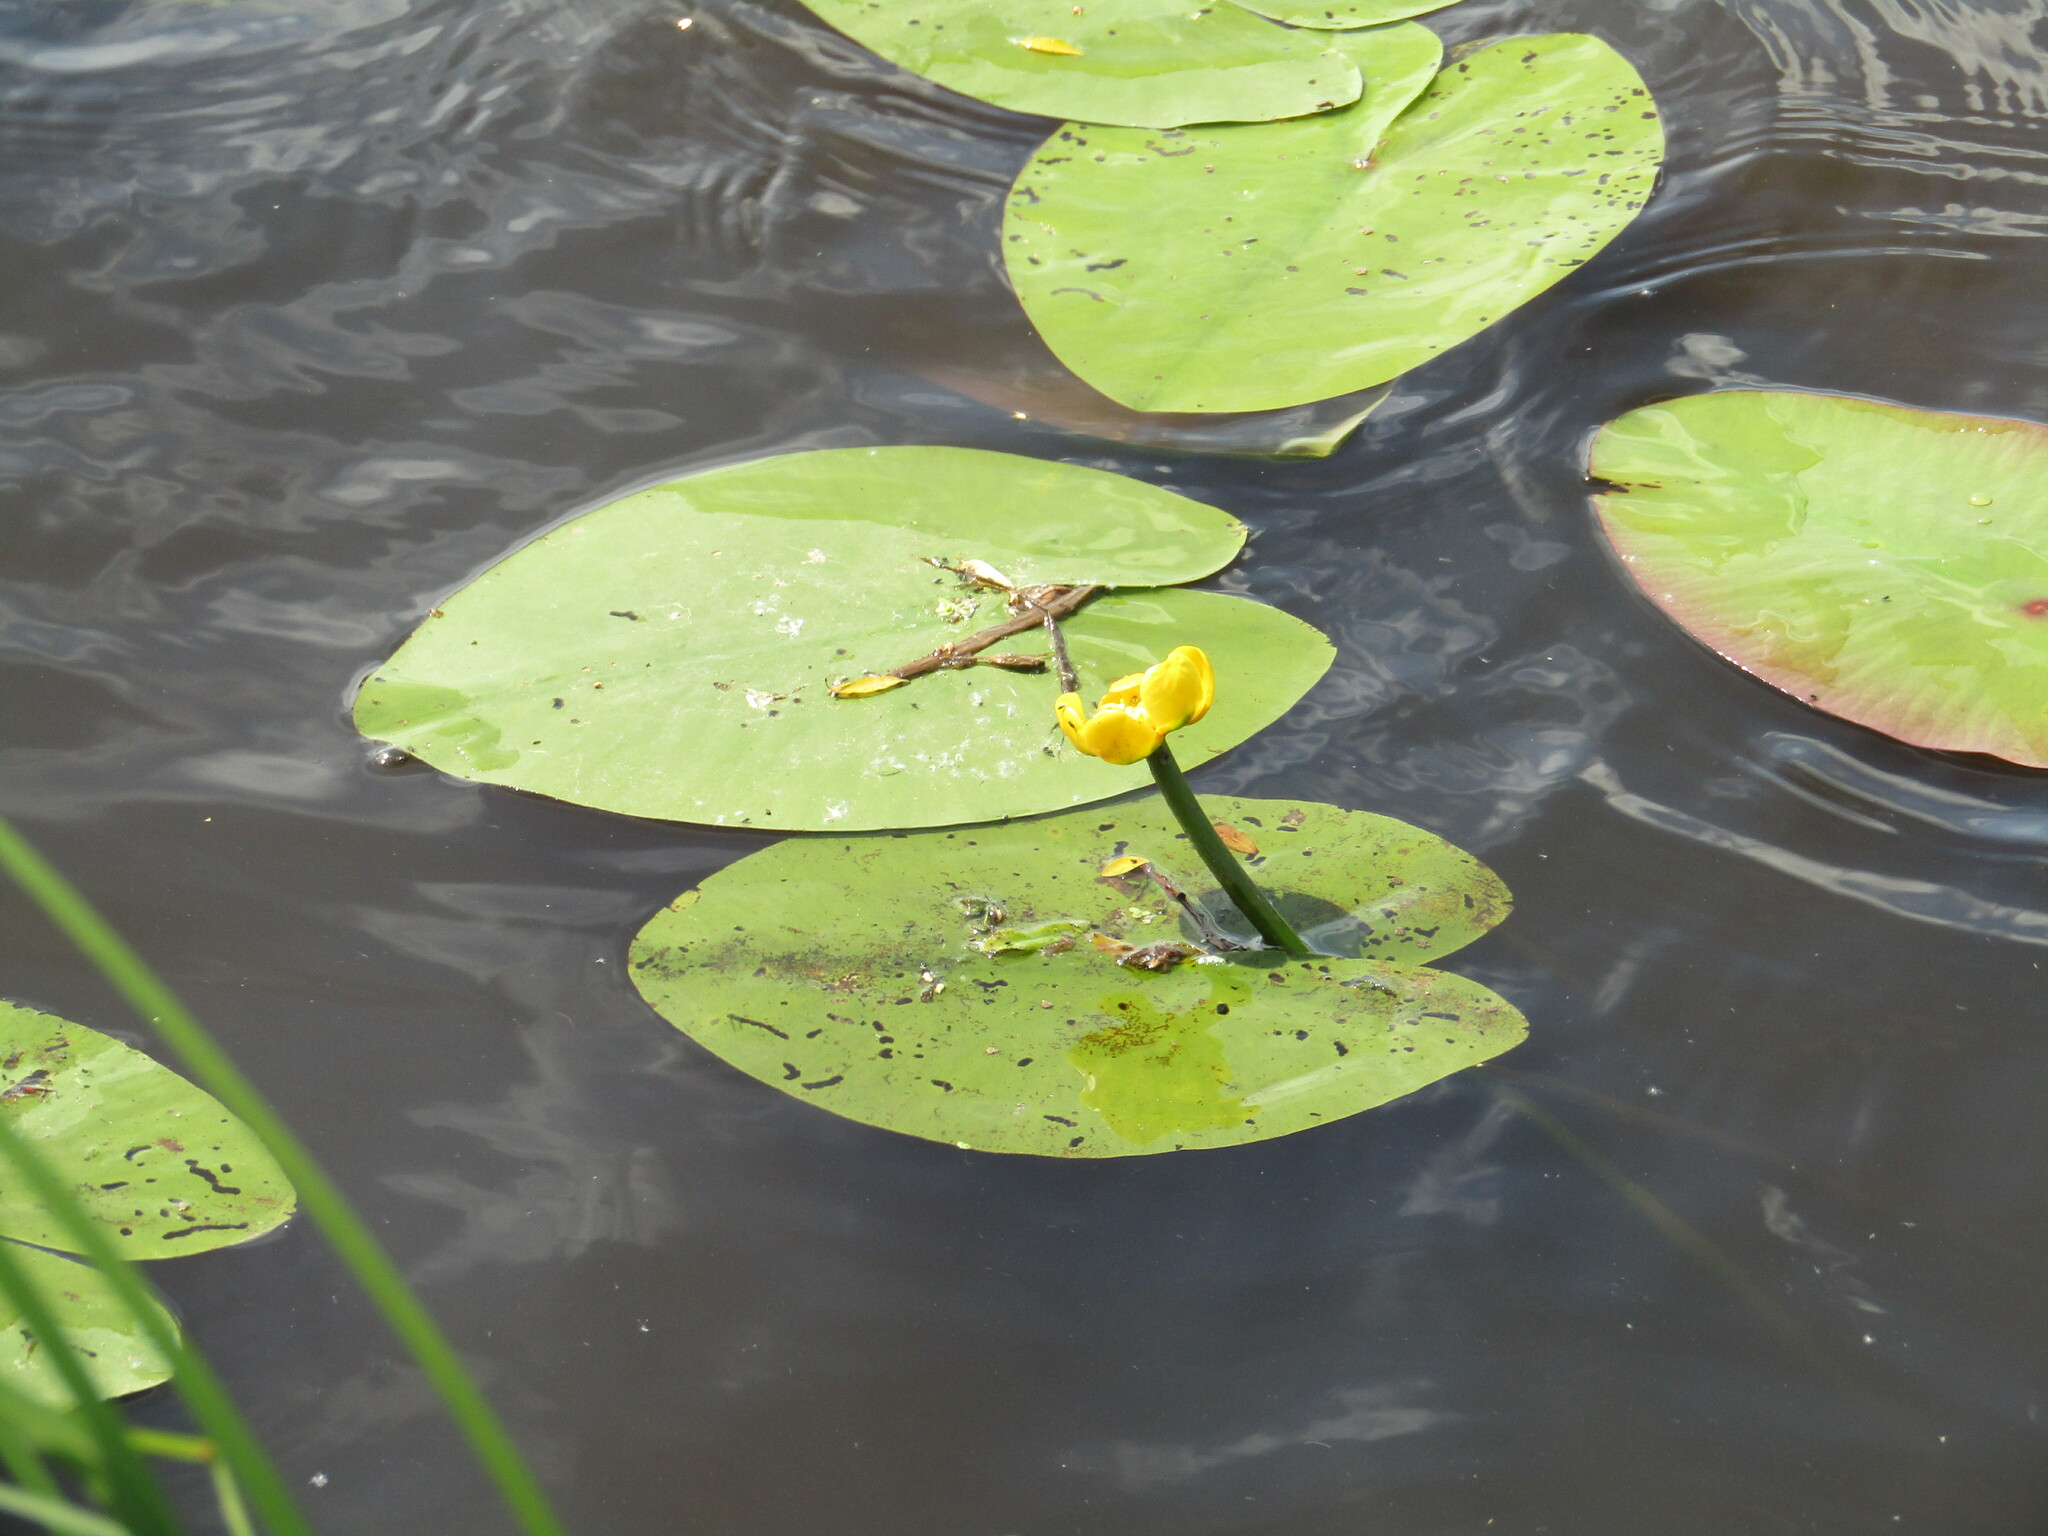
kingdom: Plantae
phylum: Tracheophyta
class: Magnoliopsida
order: Nymphaeales
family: Nymphaeaceae
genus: Nuphar
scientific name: Nuphar lutea
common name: Yellow water-lily
